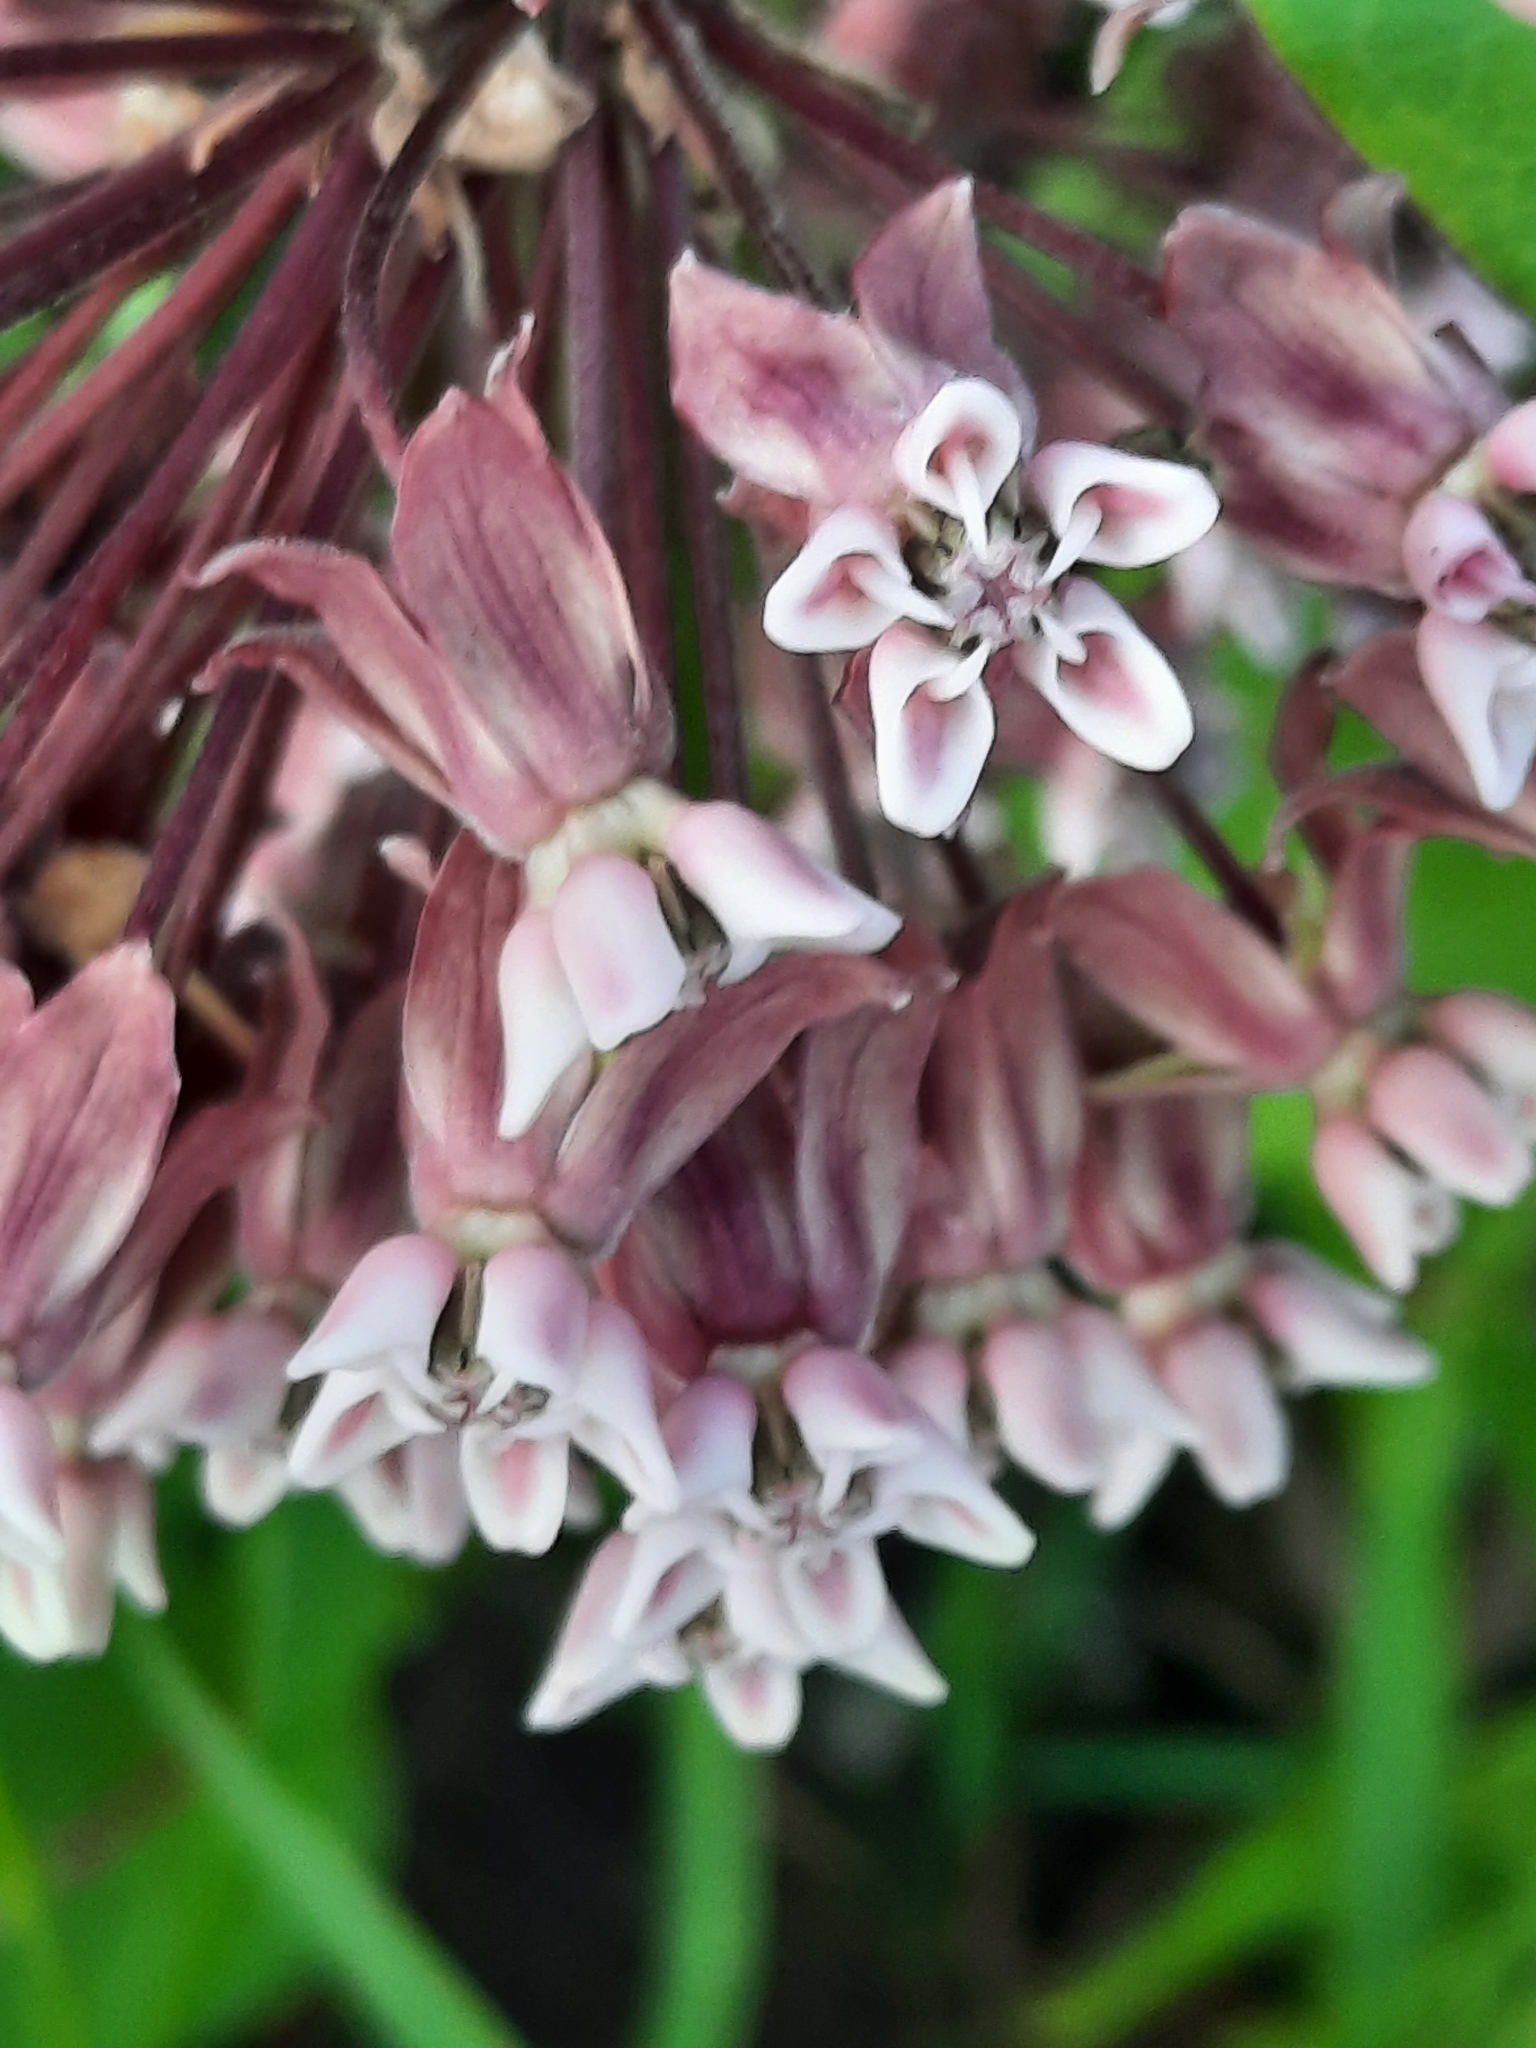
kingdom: Plantae
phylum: Tracheophyta
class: Magnoliopsida
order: Gentianales
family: Apocynaceae
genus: Asclepias
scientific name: Asclepias syriaca
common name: Common milkweed
